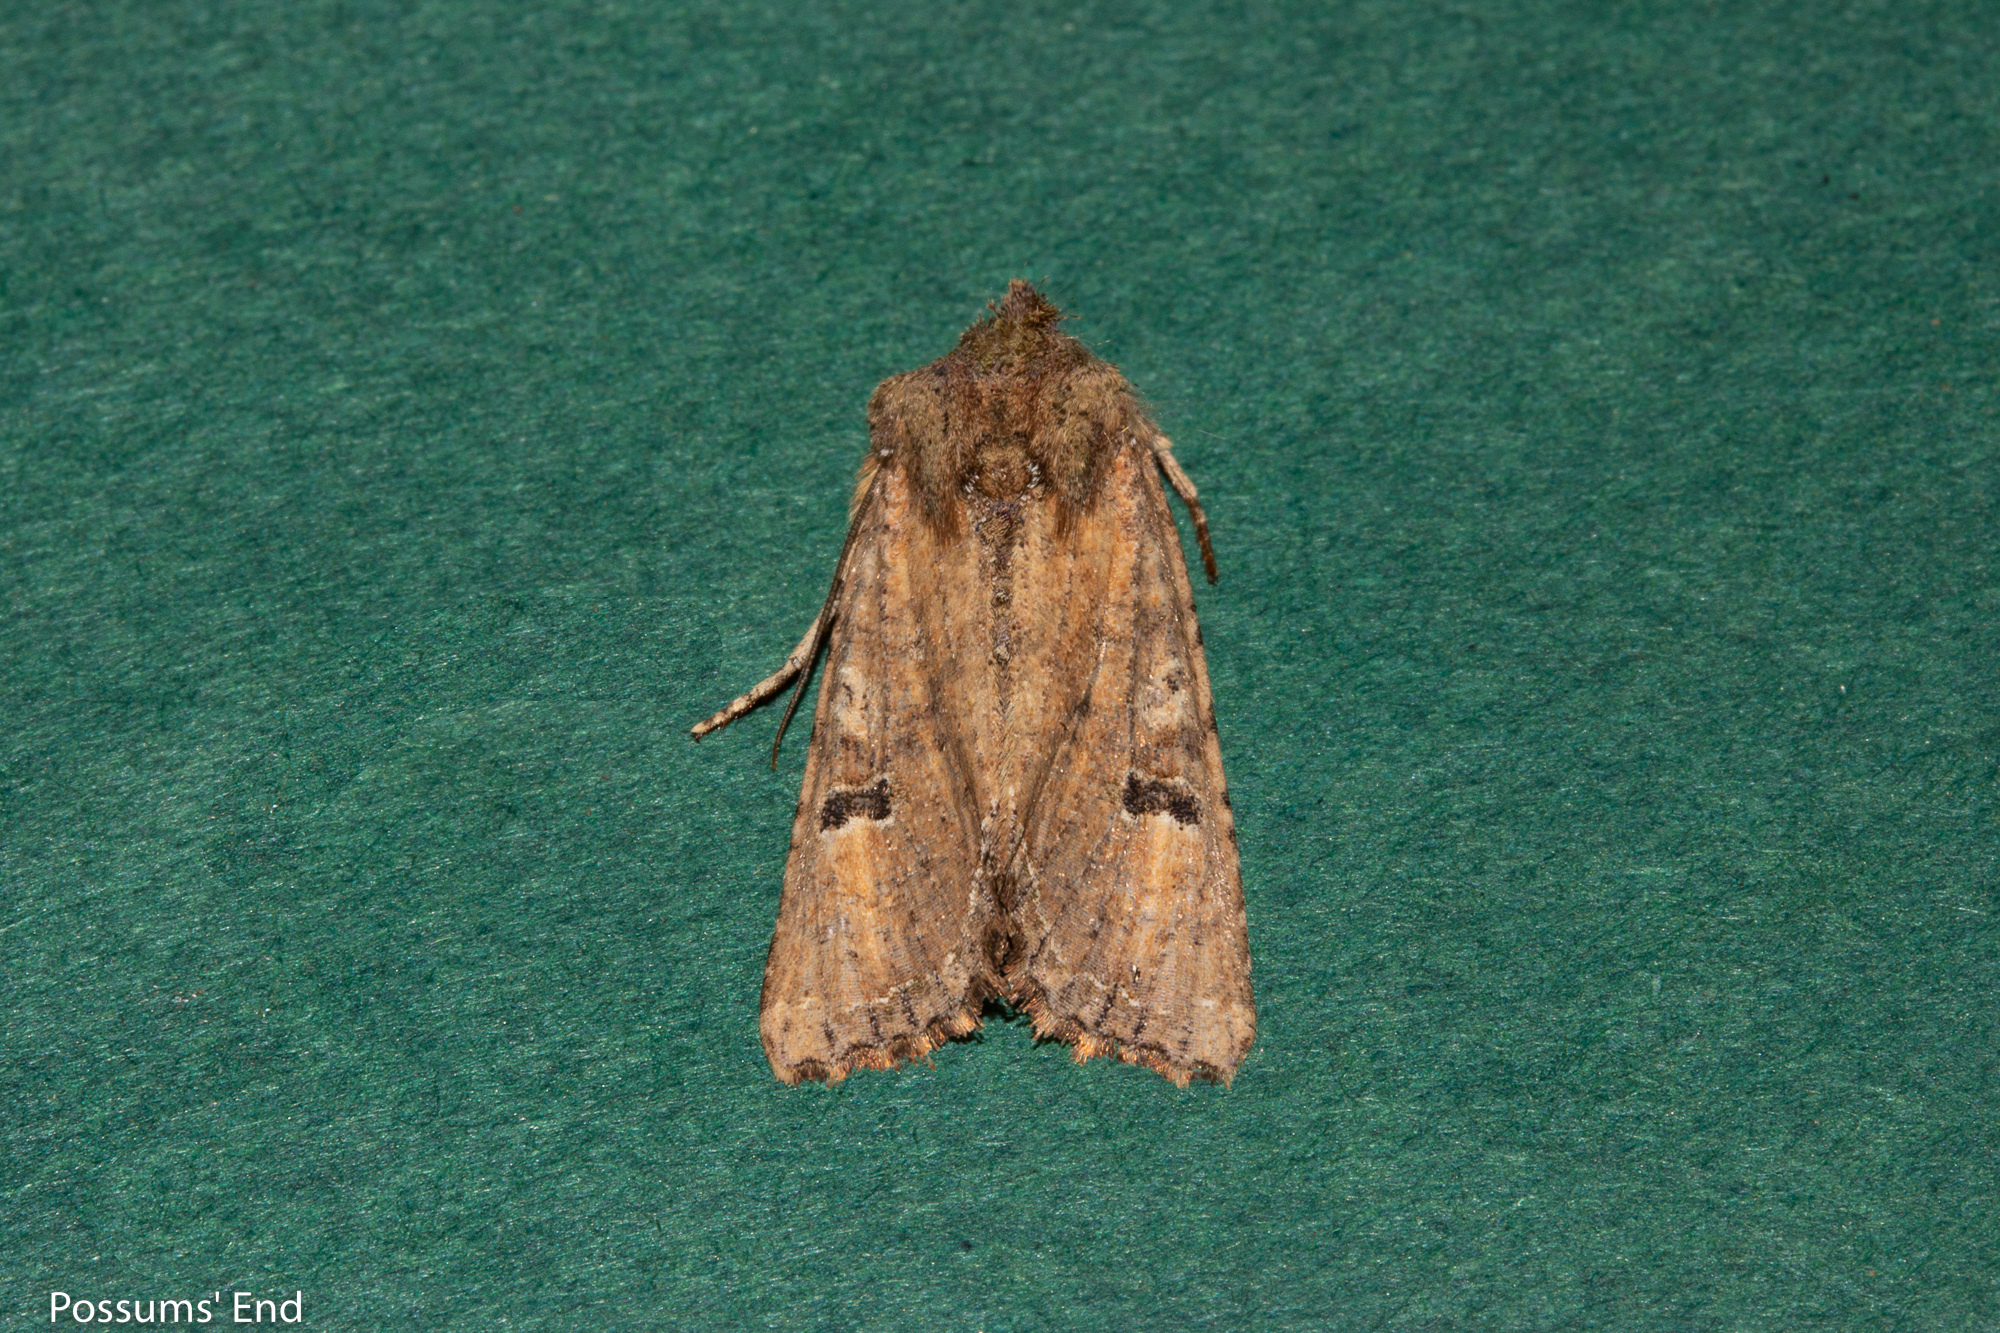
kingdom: Animalia
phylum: Arthropoda
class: Insecta
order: Lepidoptera
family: Noctuidae
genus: Meterana
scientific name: Meterana inchoata
